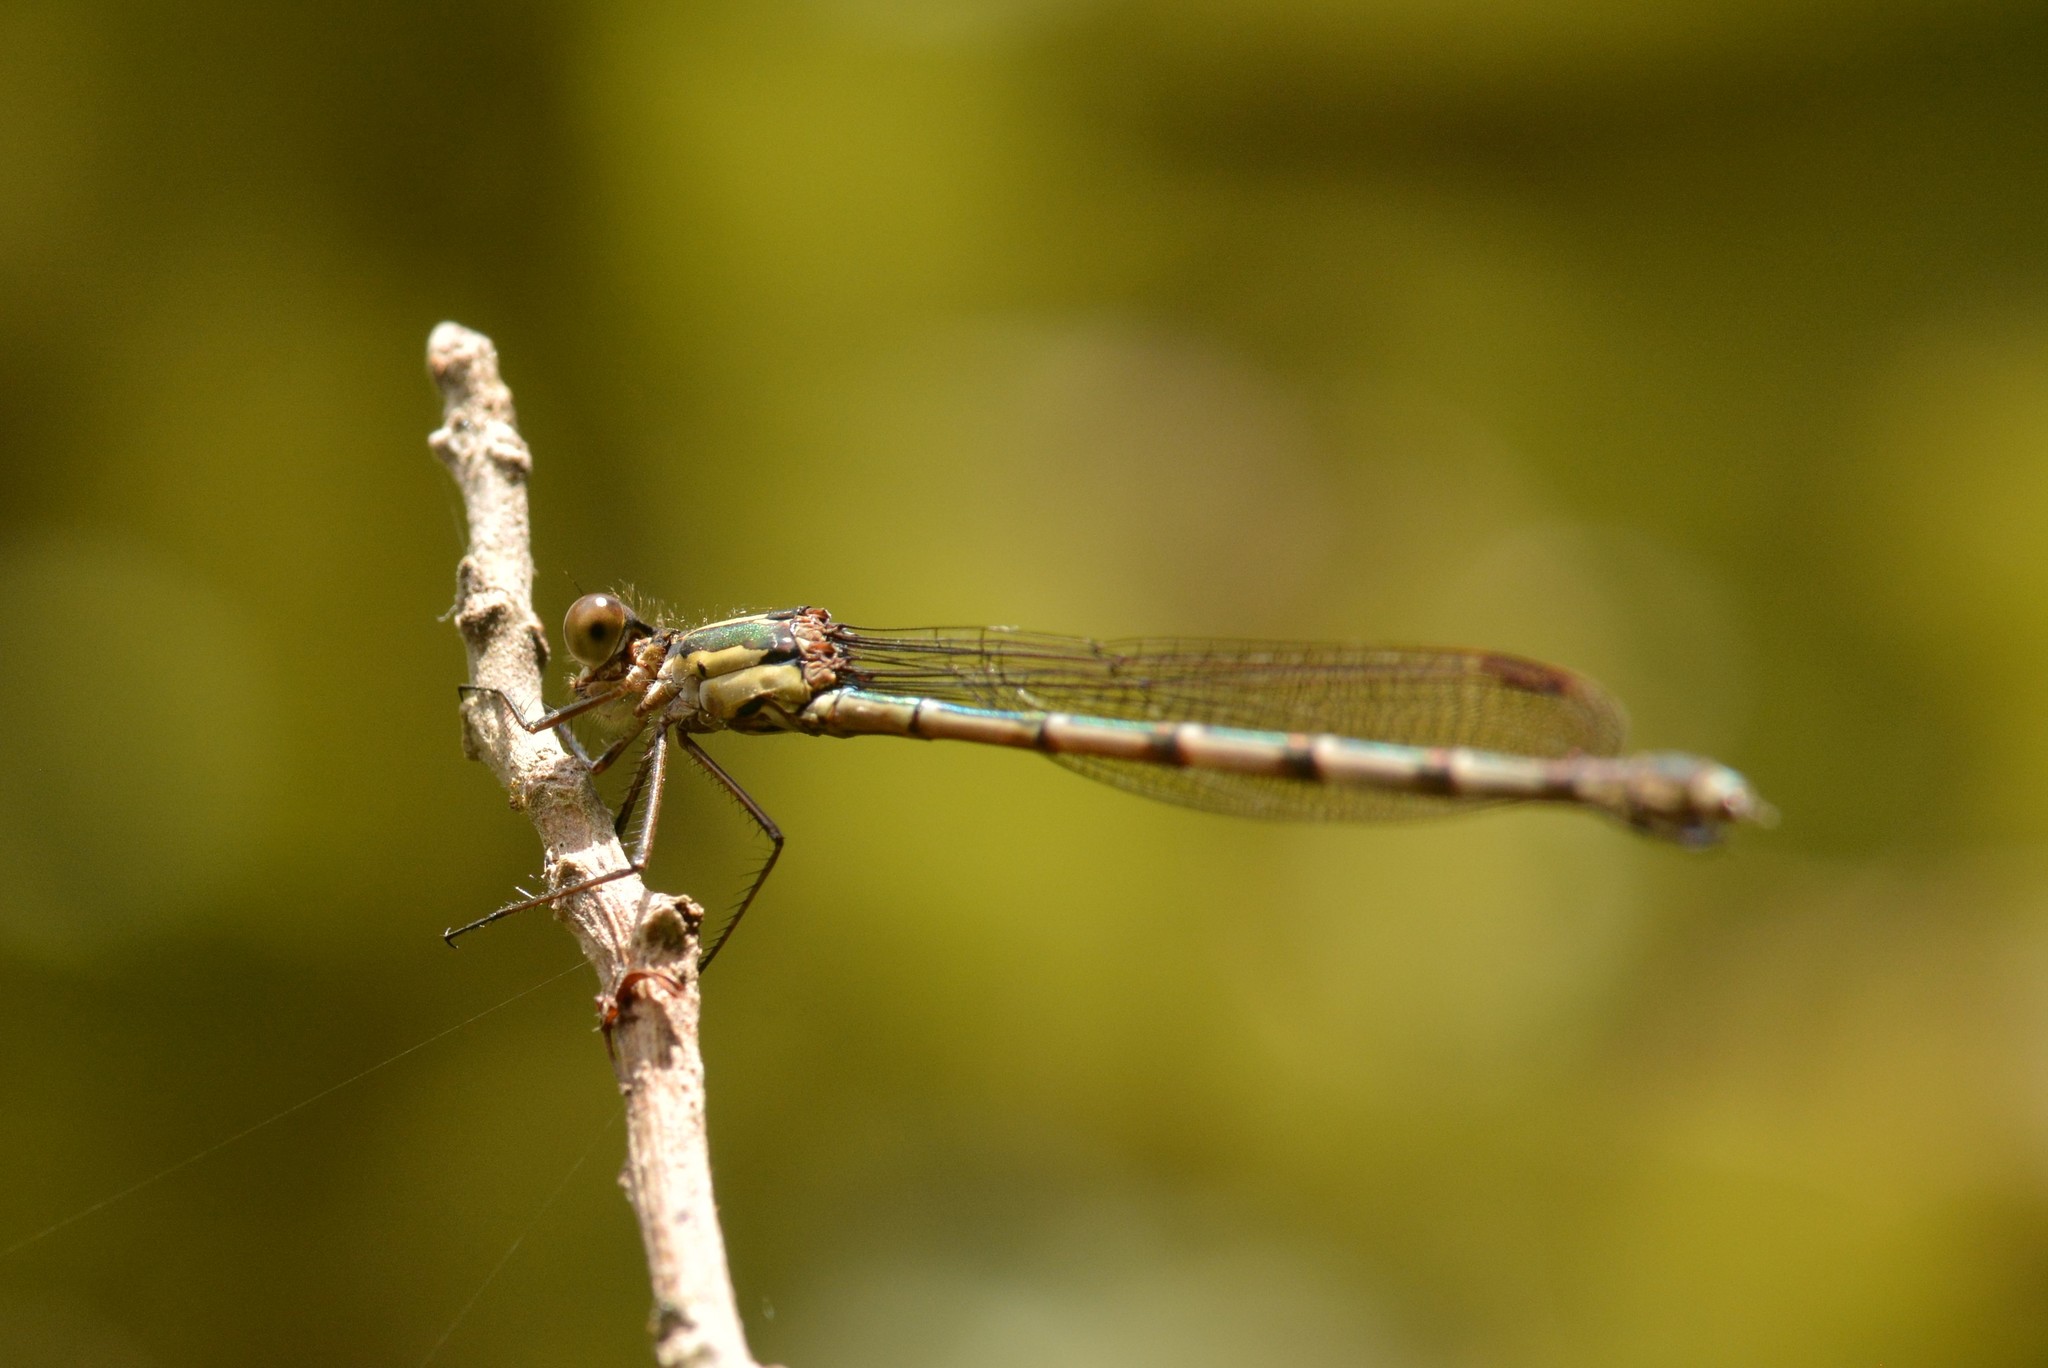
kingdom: Animalia
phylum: Arthropoda
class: Insecta
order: Odonata
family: Lestidae
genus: Austrolestes
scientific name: Austrolestes colensonis
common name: Blue damselfly
